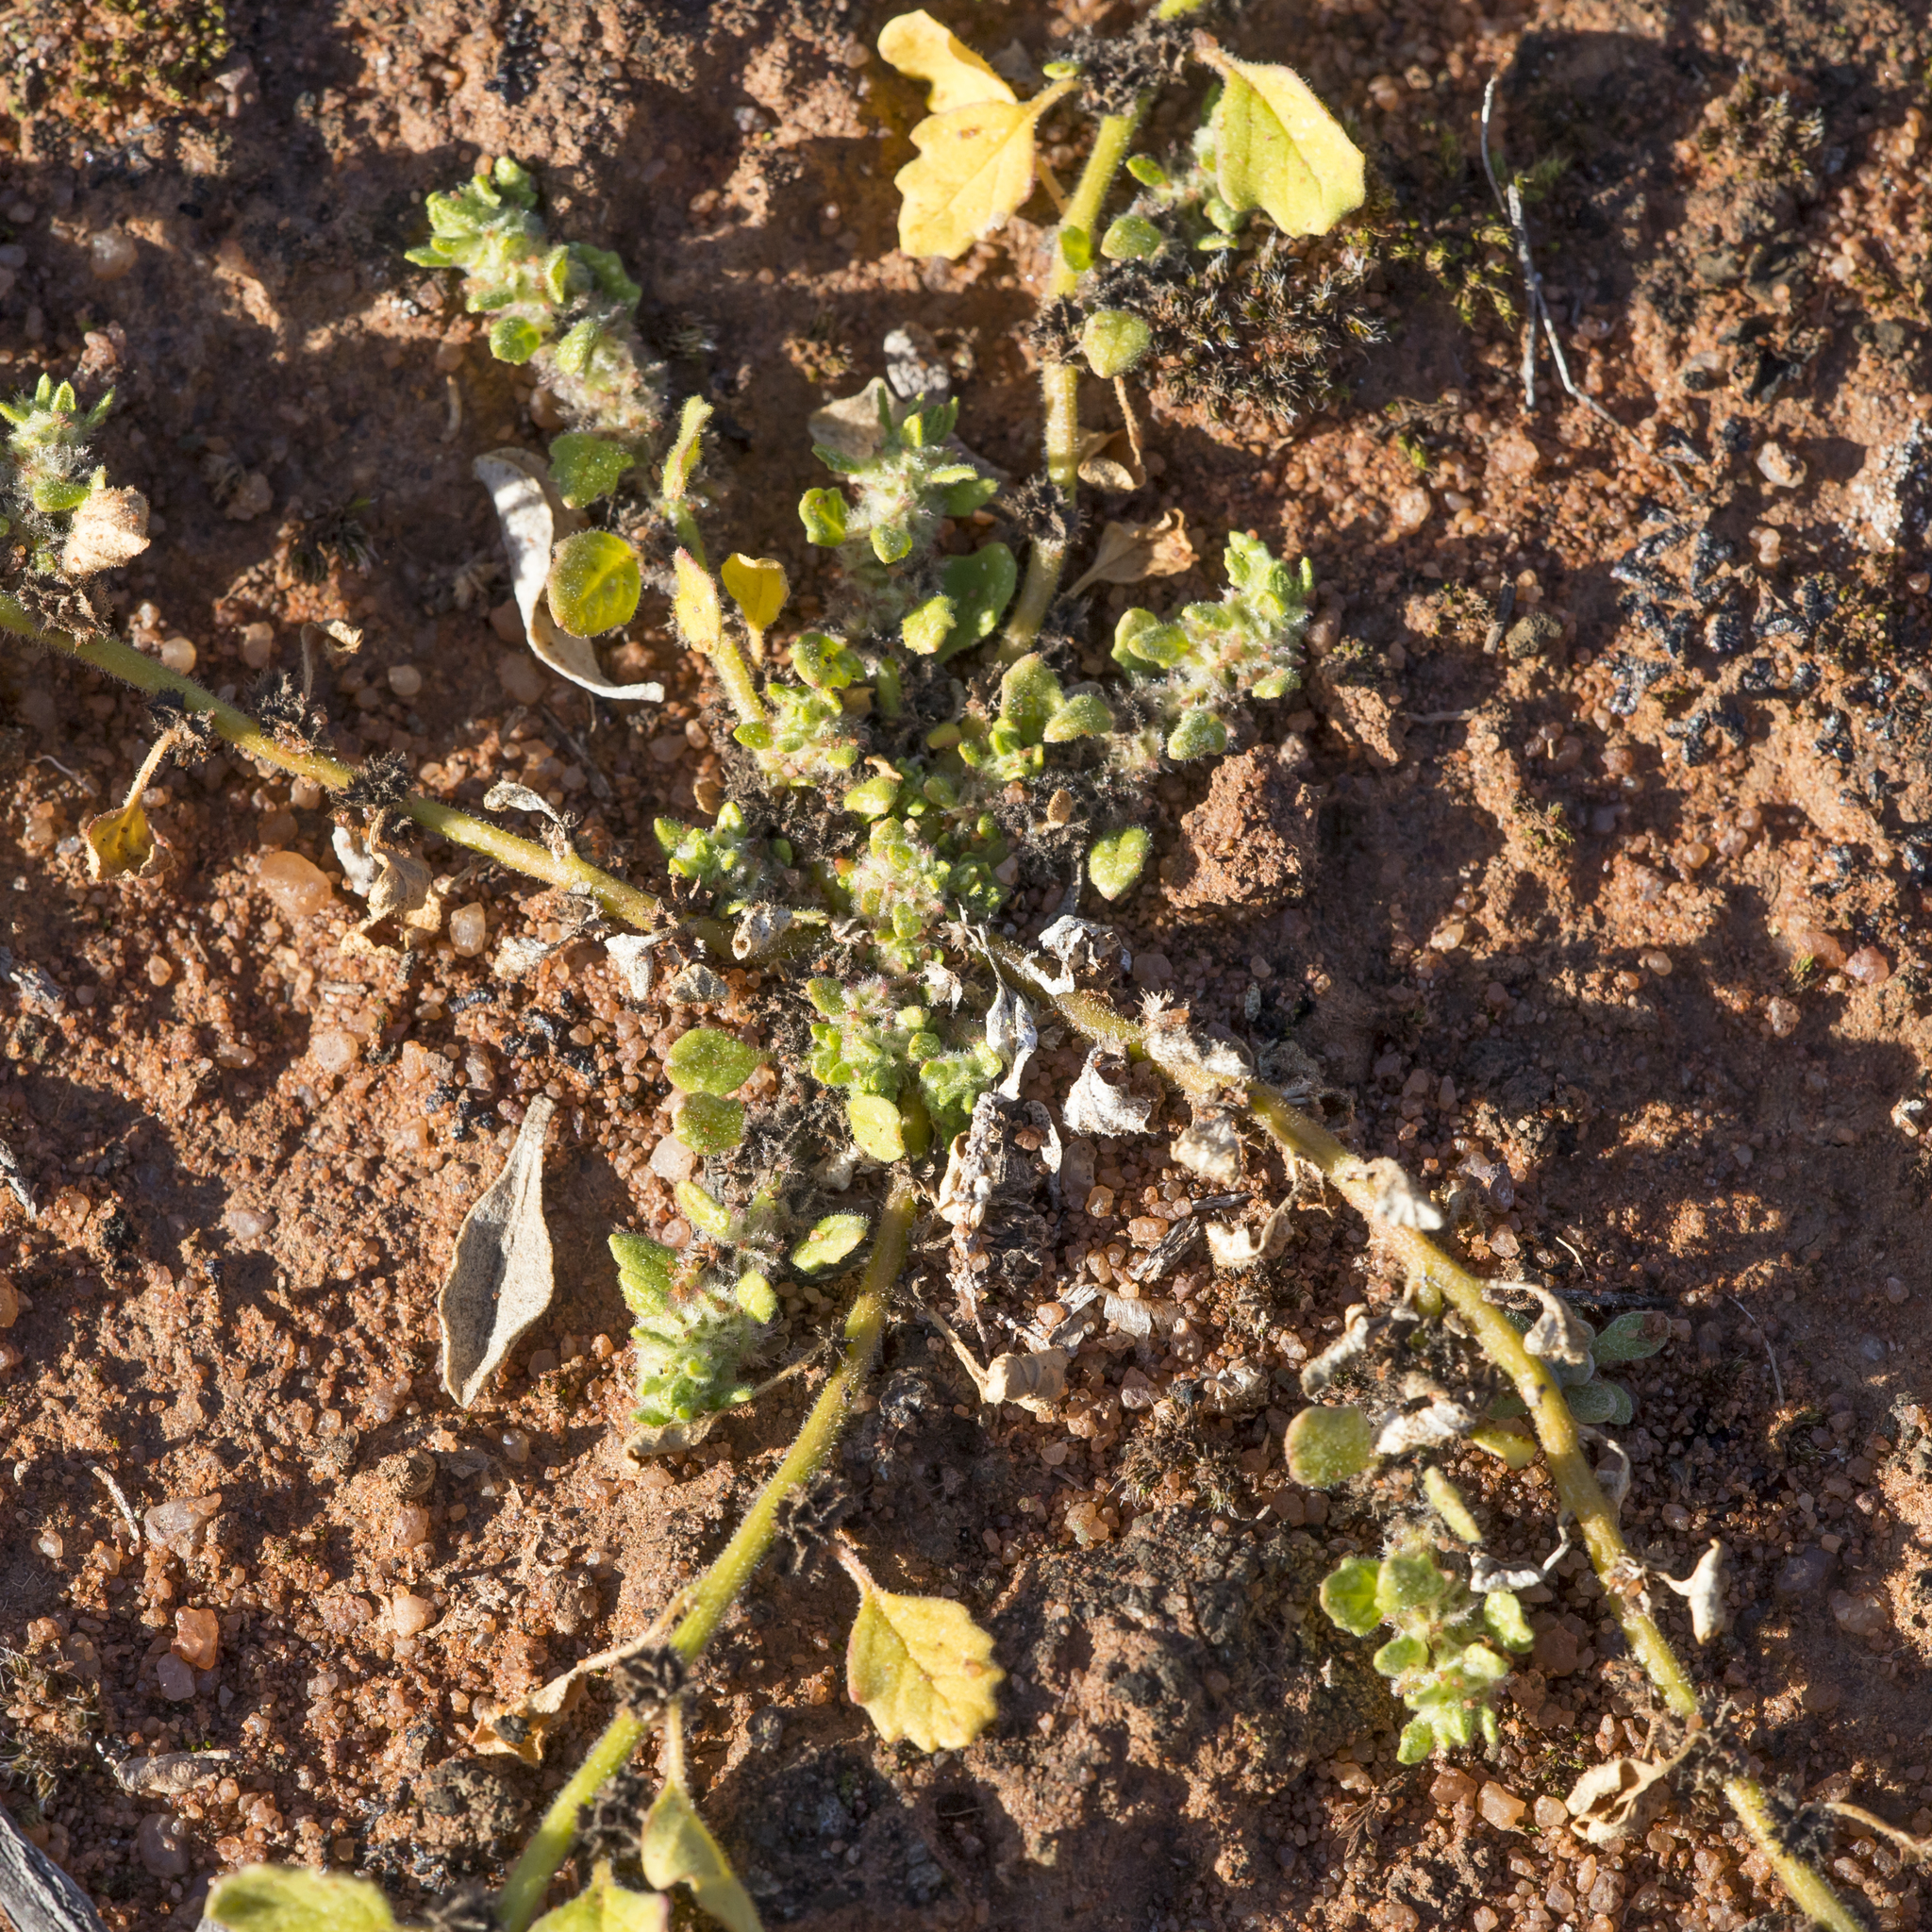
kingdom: Plantae
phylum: Tracheophyta
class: Magnoliopsida
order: Caryophyllales
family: Amaranthaceae
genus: Dysphania
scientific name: Dysphania cristata
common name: Crested goosefoot
